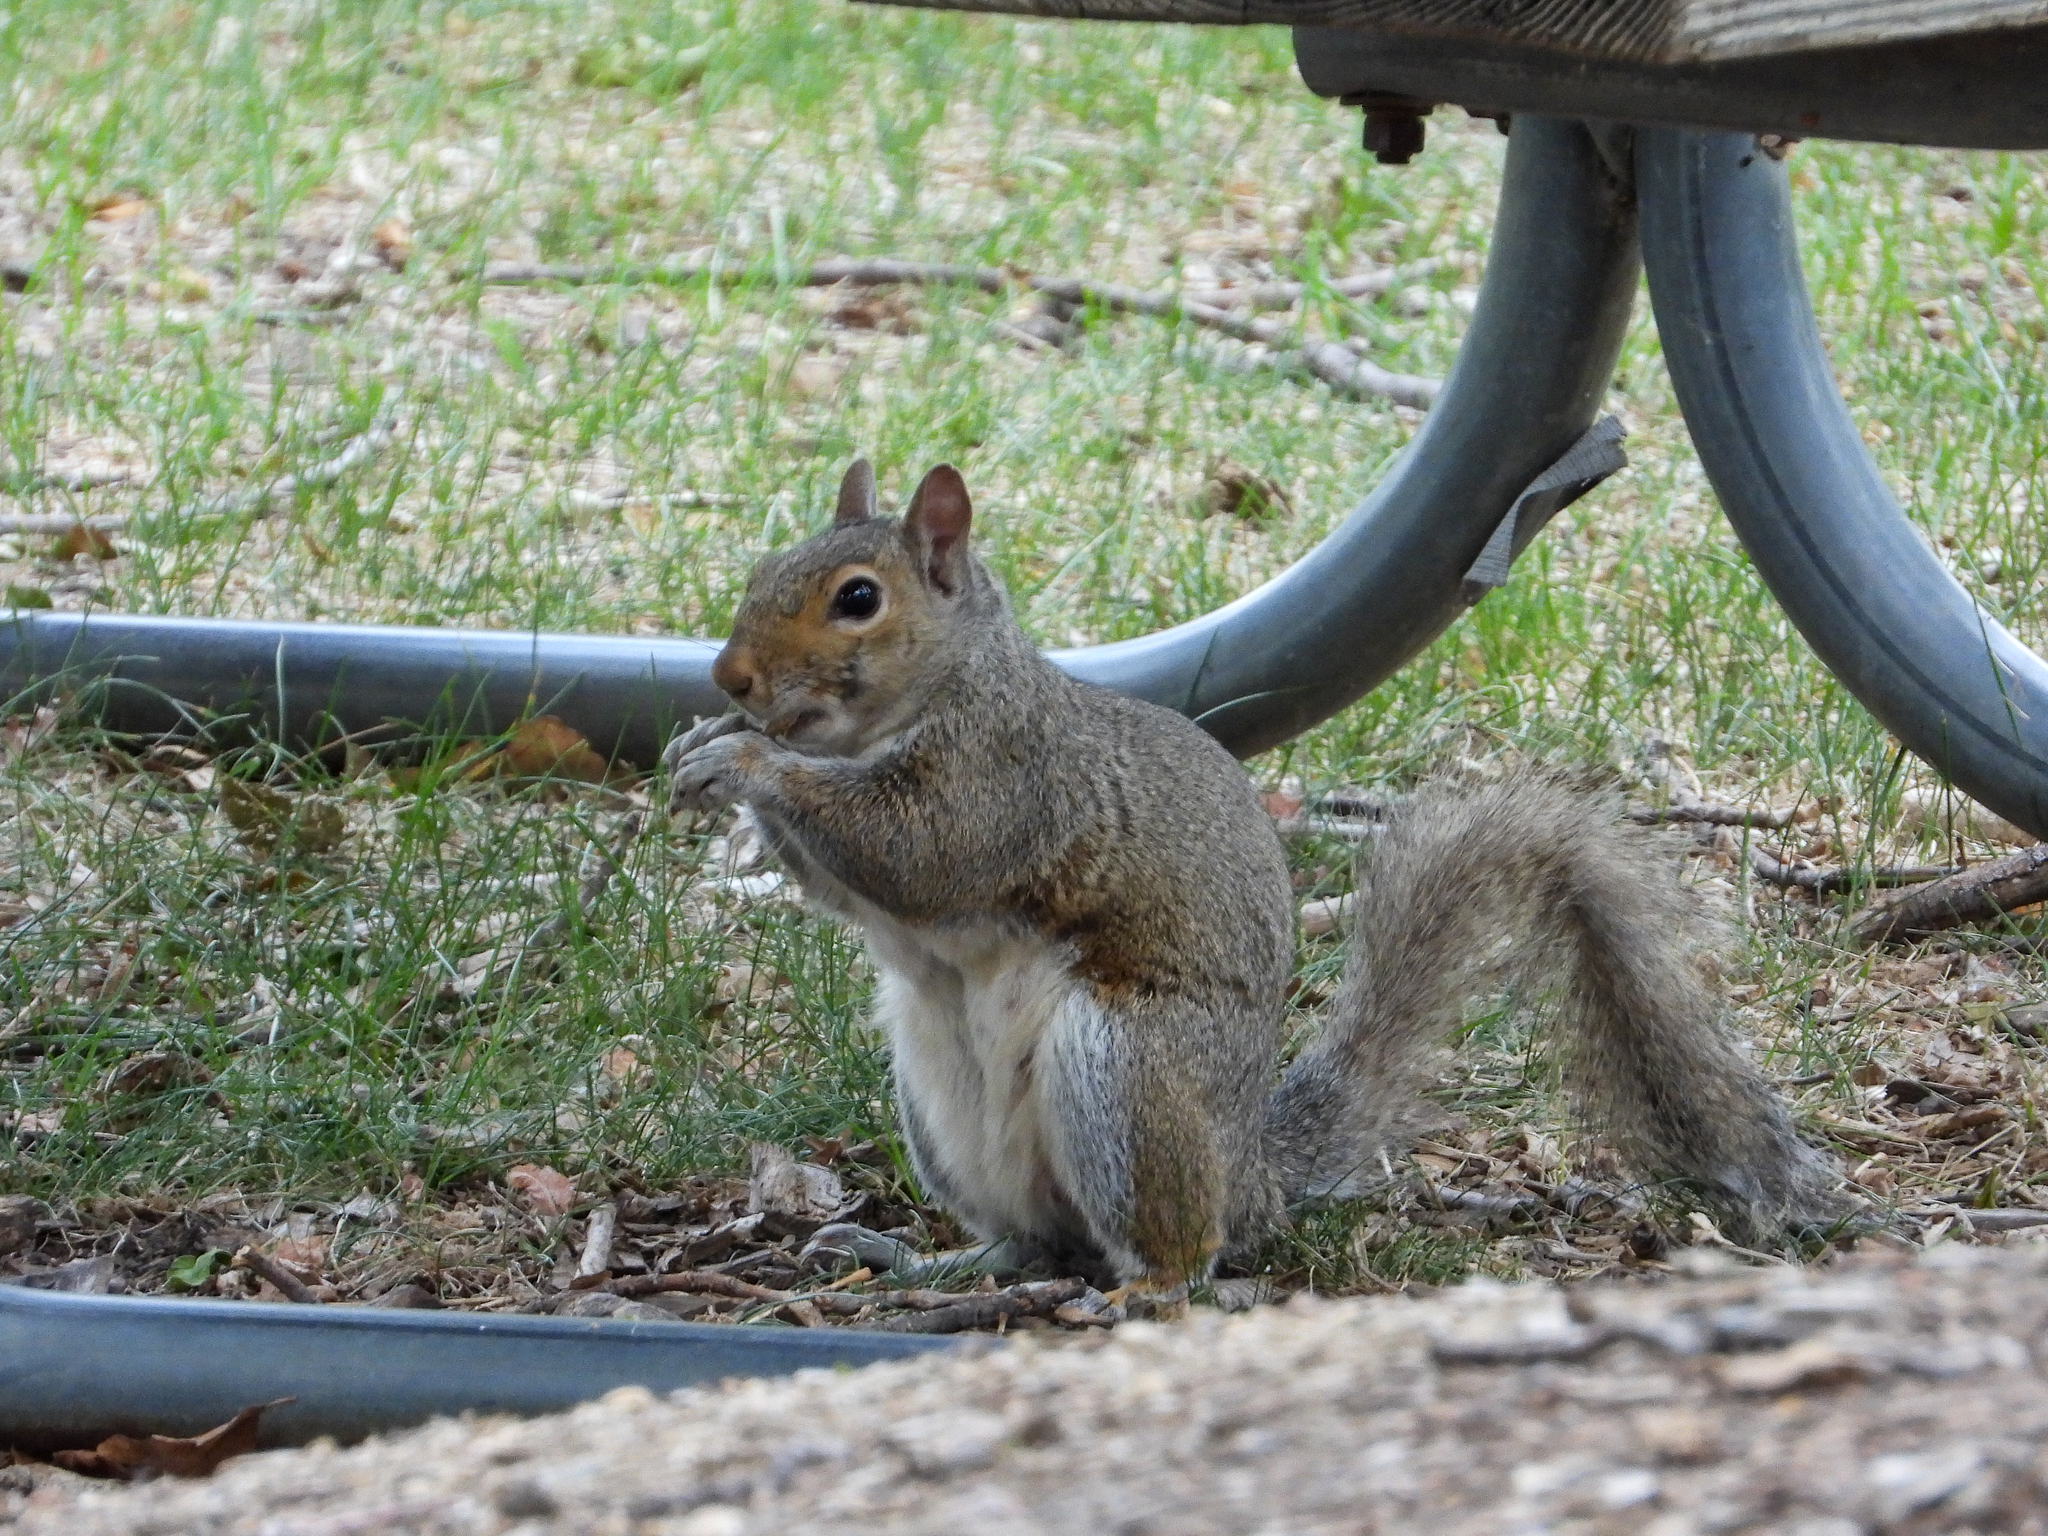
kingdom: Animalia
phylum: Chordata
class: Mammalia
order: Rodentia
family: Sciuridae
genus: Sciurus
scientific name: Sciurus carolinensis
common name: Eastern gray squirrel
